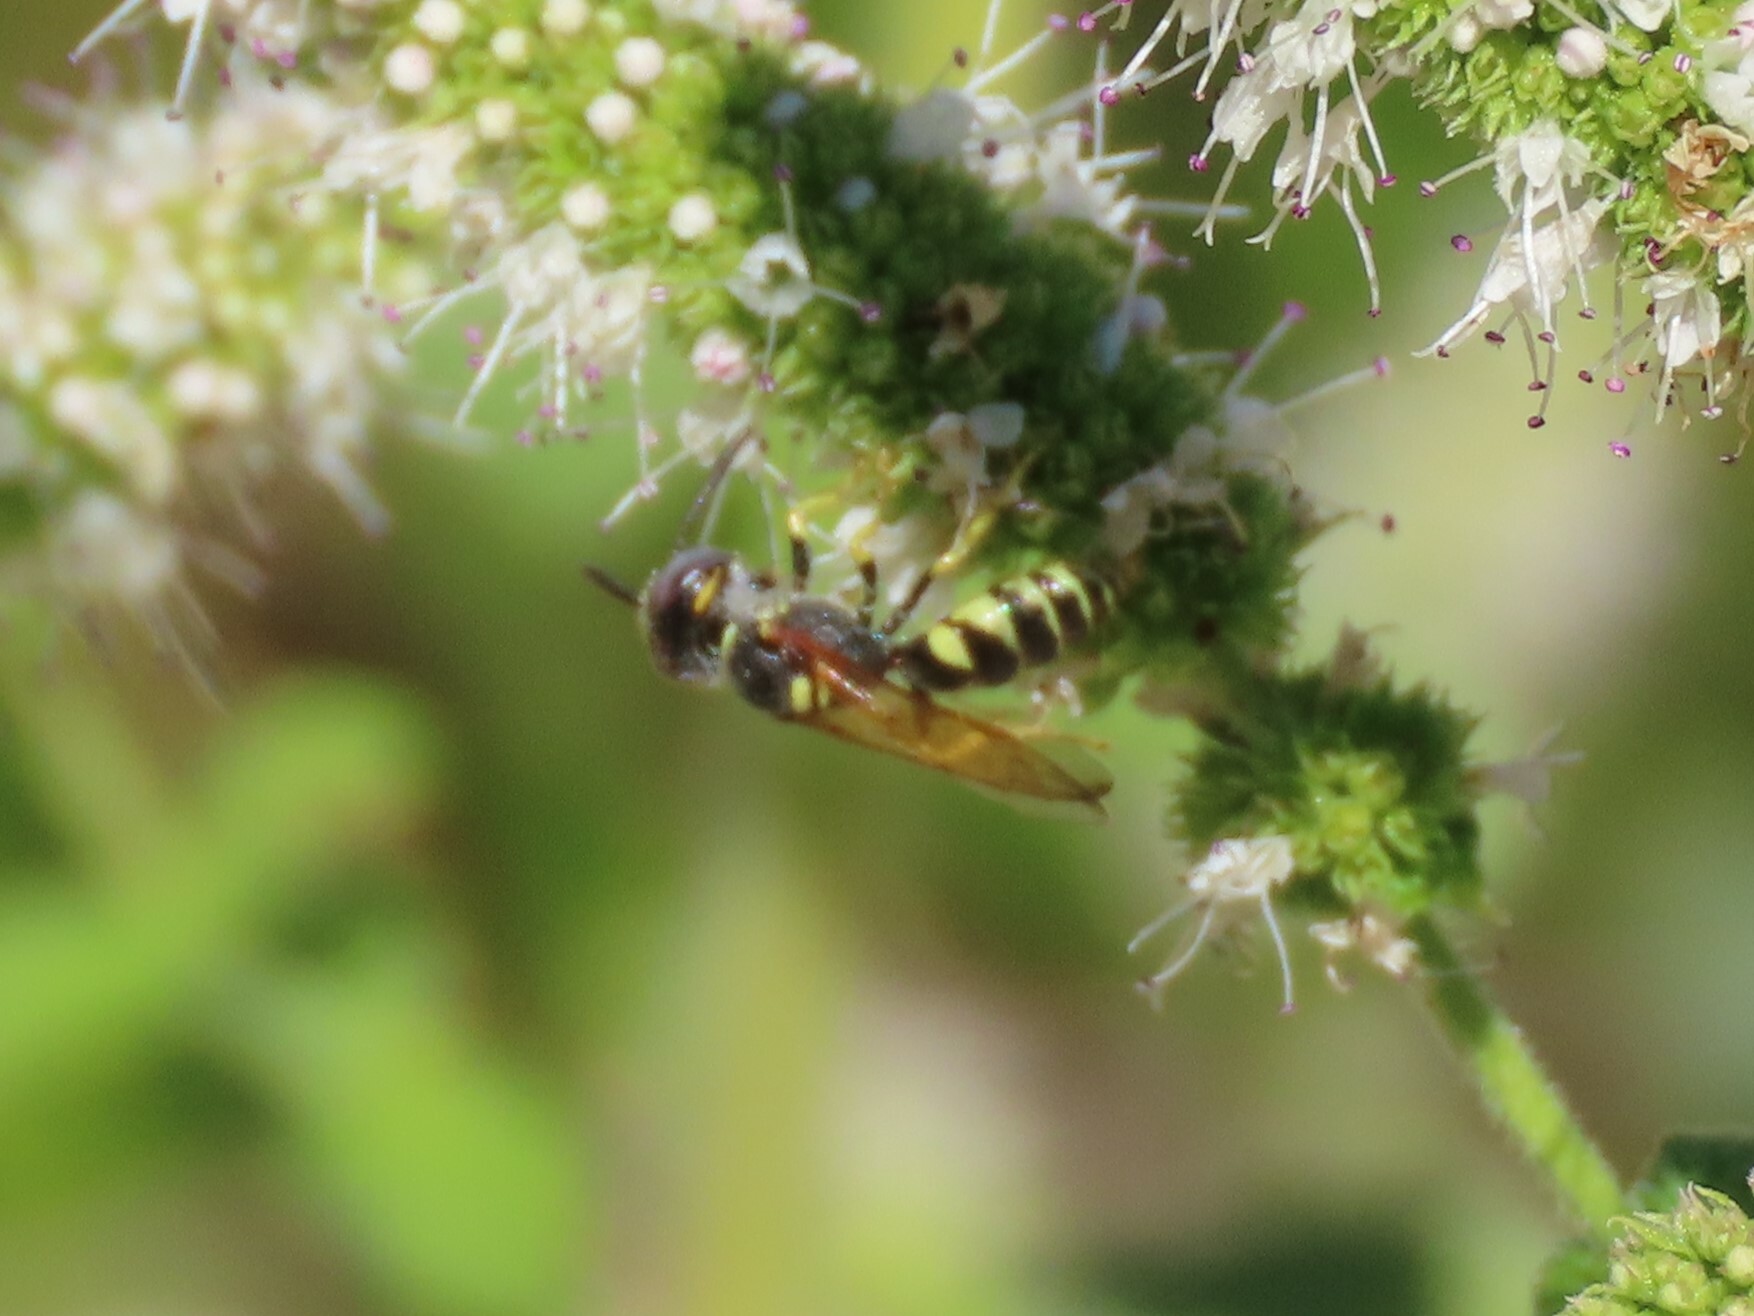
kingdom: Animalia
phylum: Arthropoda
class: Insecta
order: Hymenoptera
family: Crabronidae
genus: Philanthus
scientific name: Philanthus triangulum
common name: Bee wolf
